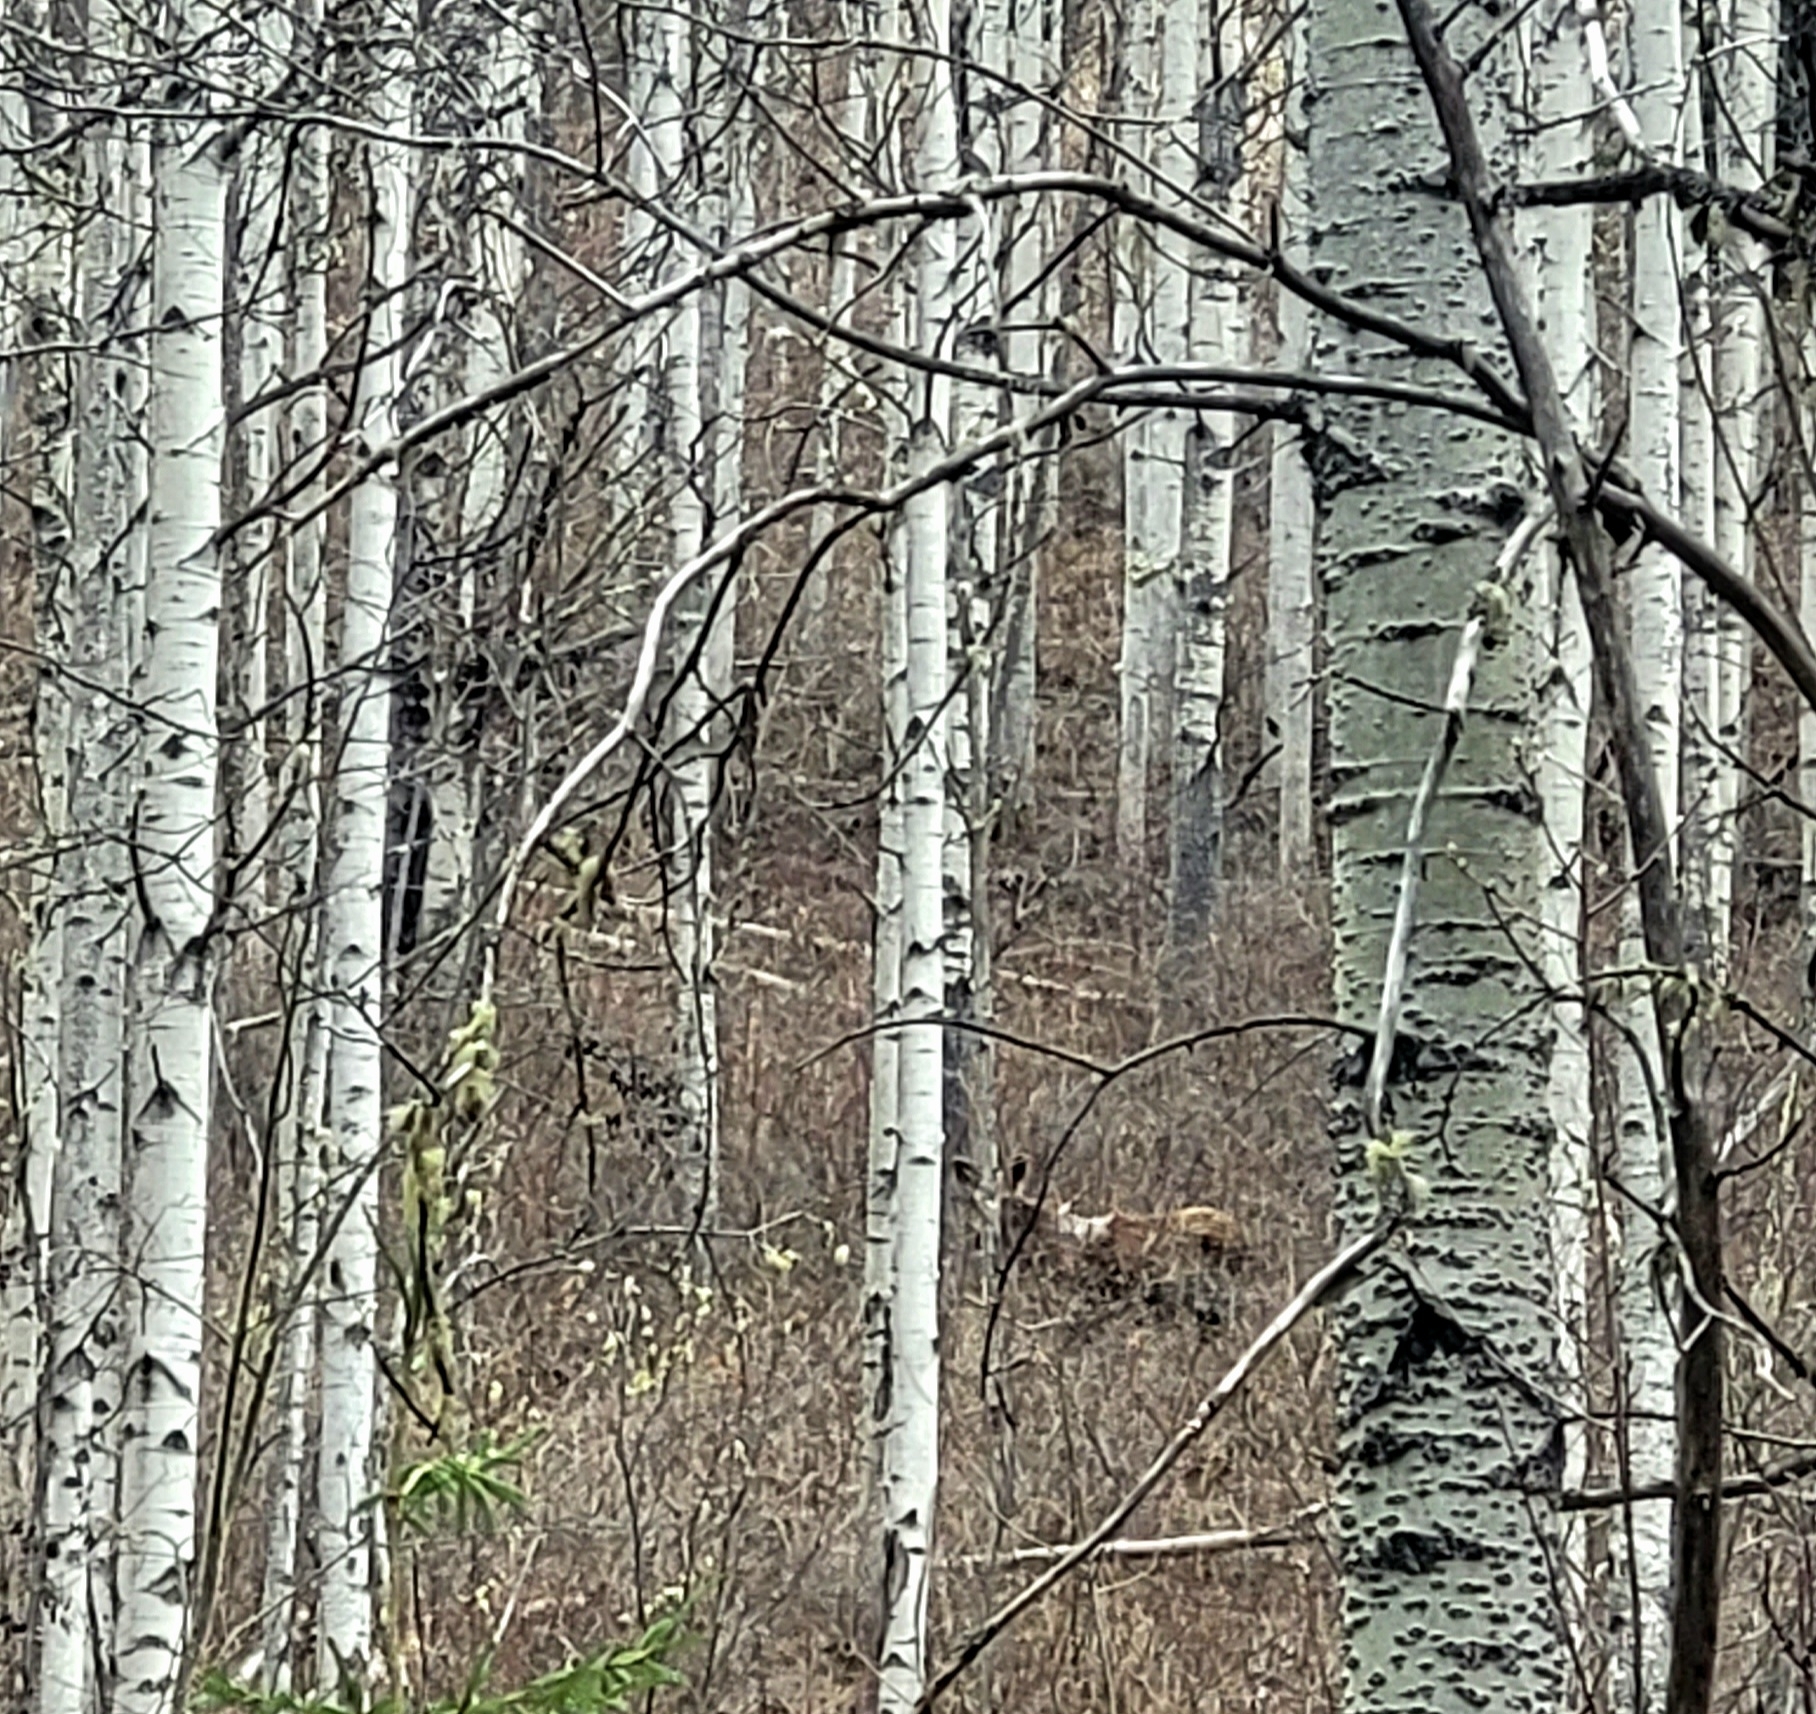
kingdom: Animalia
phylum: Chordata
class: Mammalia
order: Artiodactyla
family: Cervidae
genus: Alces
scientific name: Alces americanus
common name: Moose
